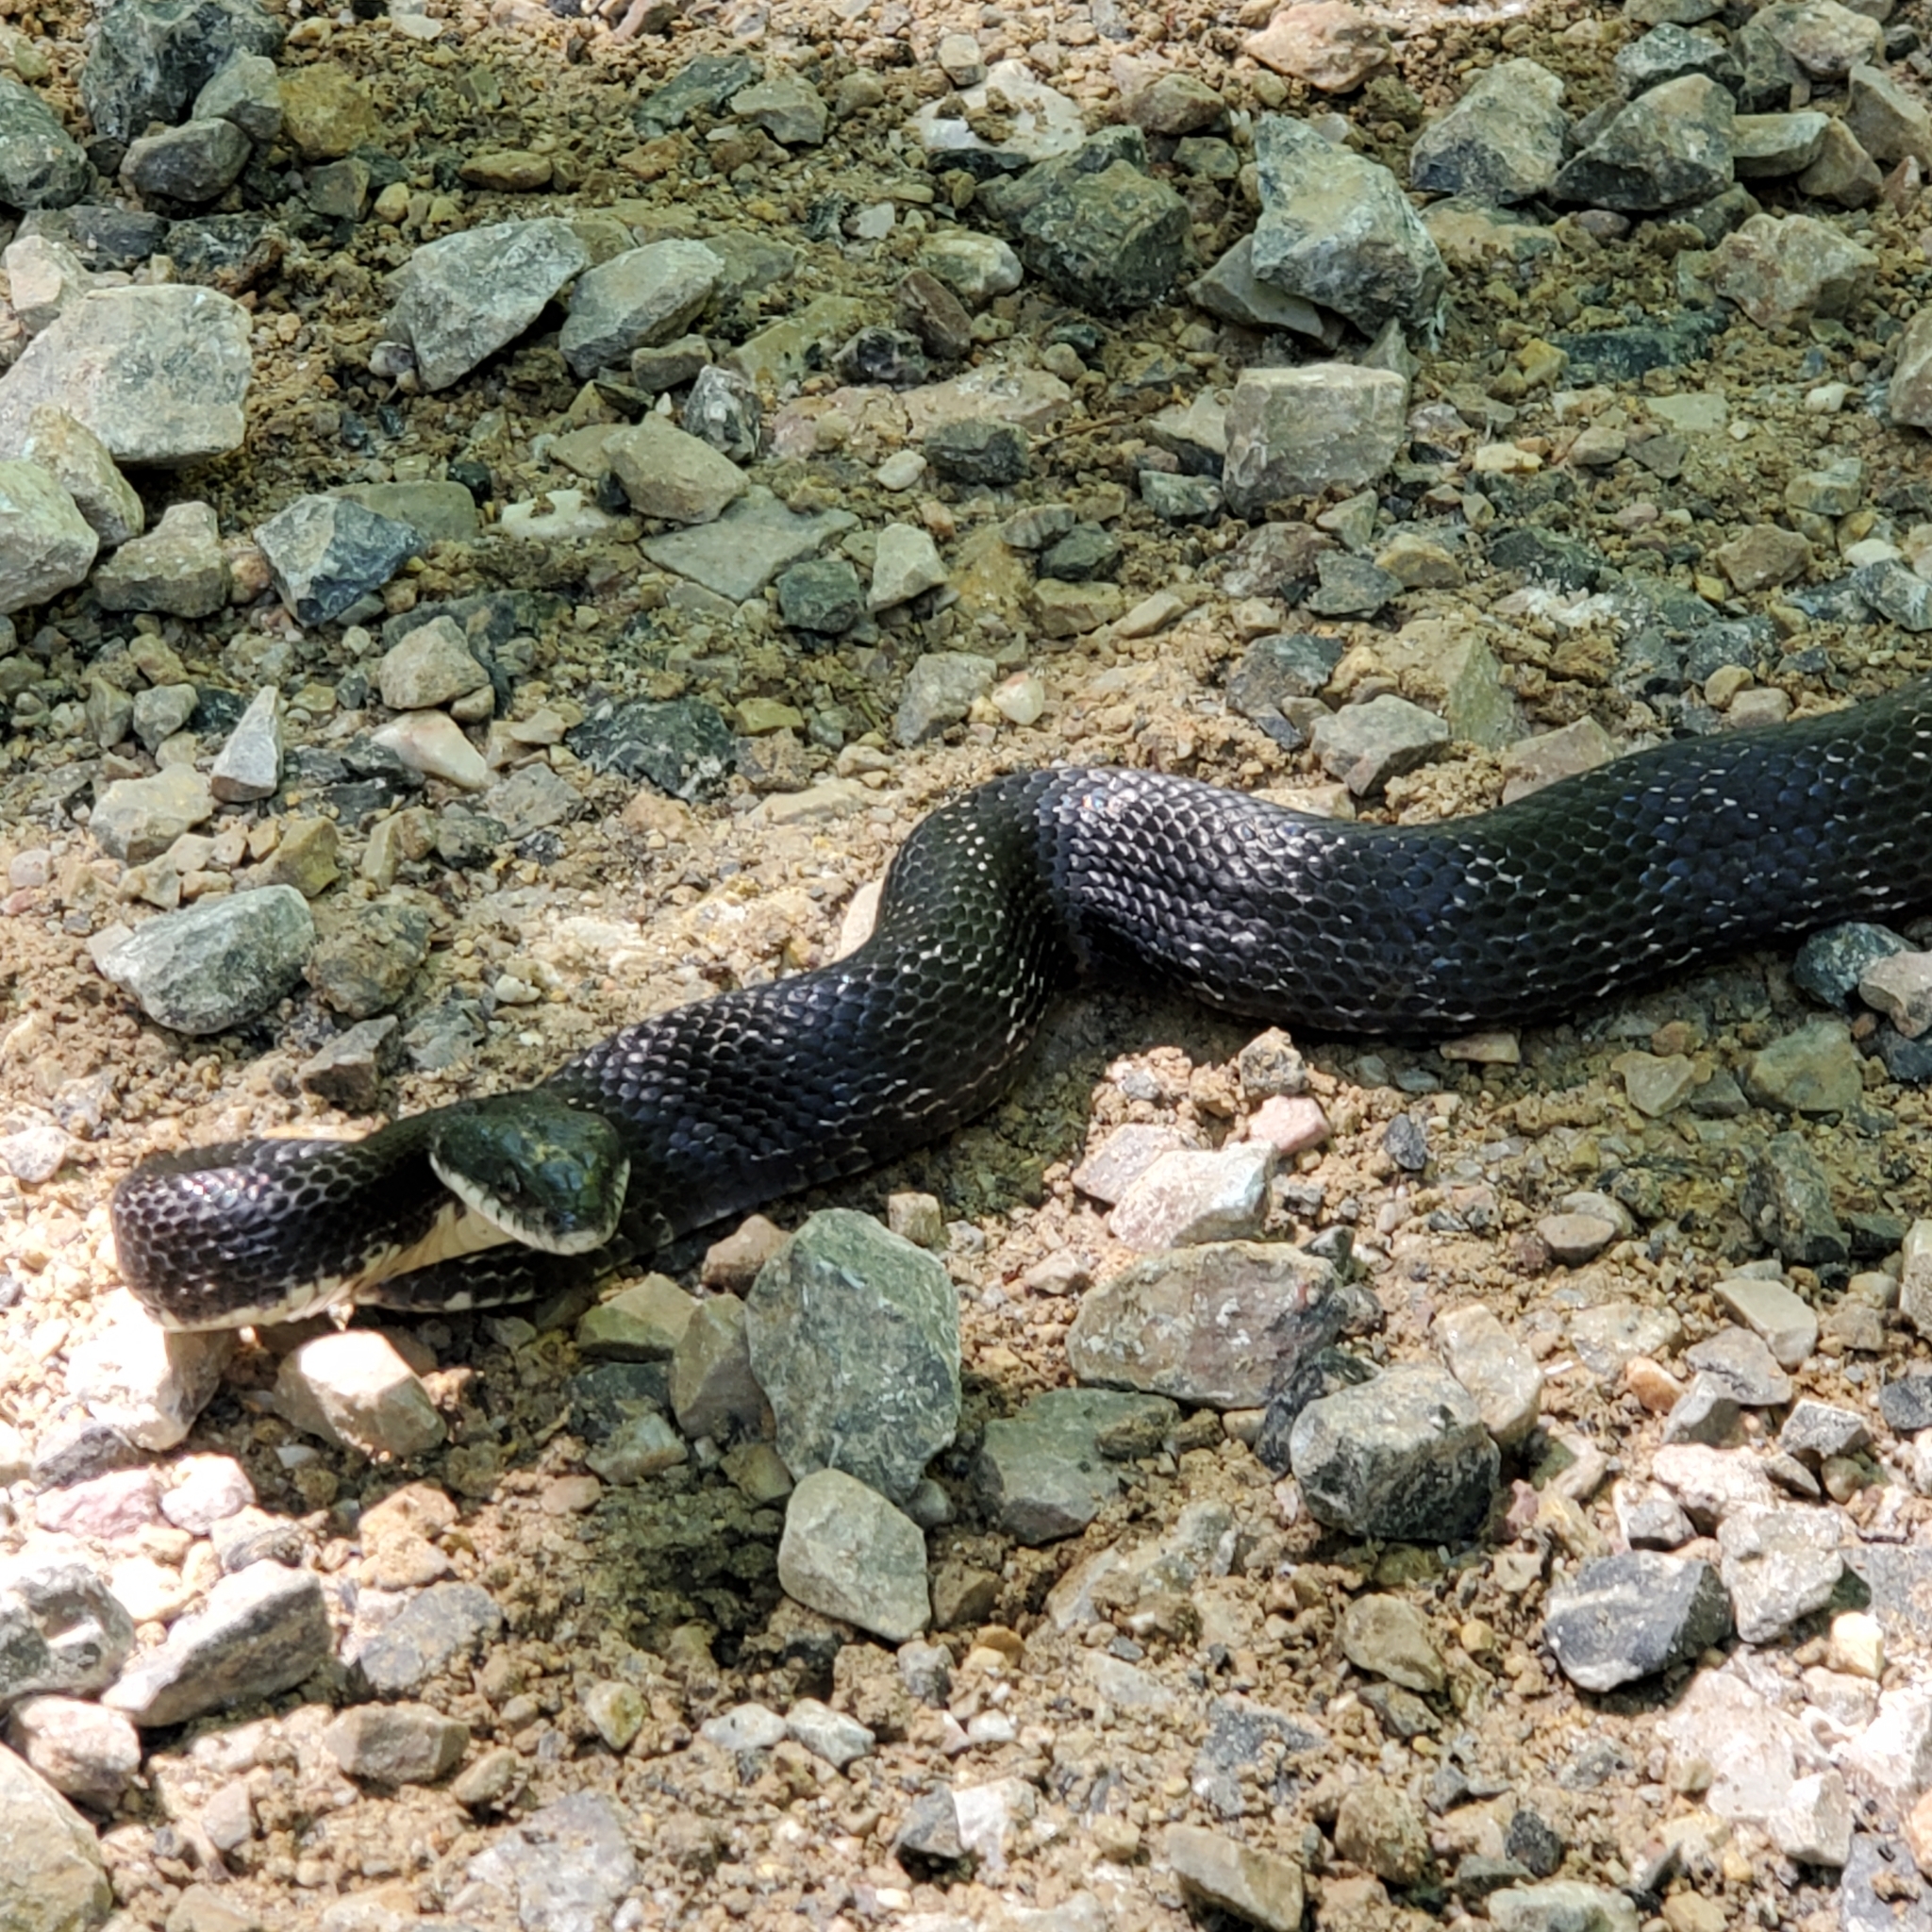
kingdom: Animalia
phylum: Chordata
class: Squamata
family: Colubridae
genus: Pantherophis
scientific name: Pantherophis alleghaniensis
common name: Eastern rat snake
